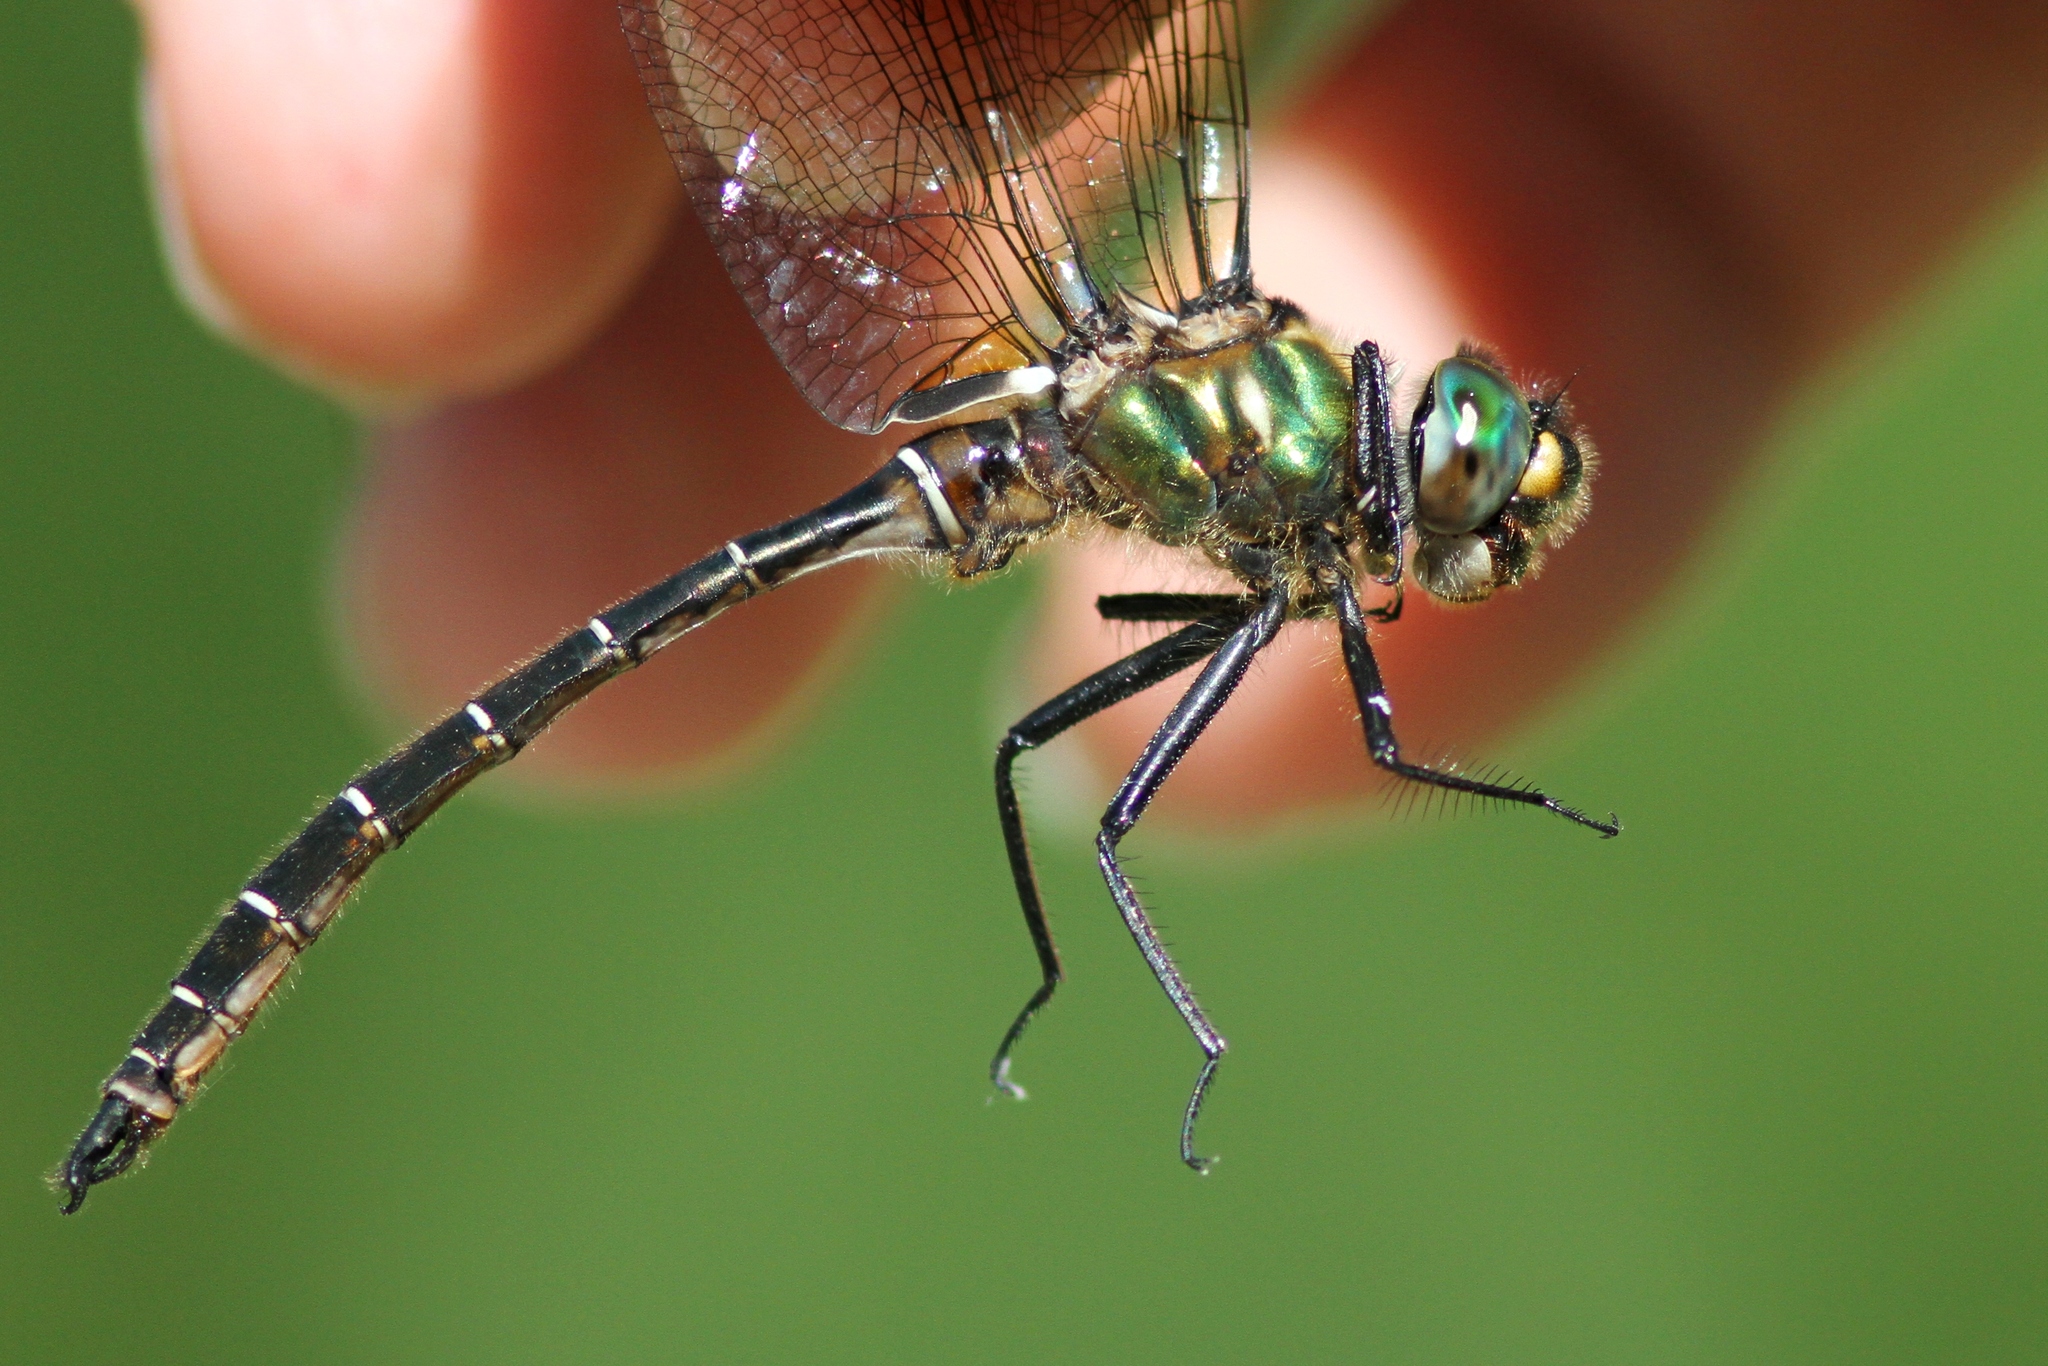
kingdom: Animalia
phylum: Arthropoda
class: Insecta
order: Odonata
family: Corduliidae
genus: Somatochlora
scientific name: Somatochlora albicincta
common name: Ringed emerald
